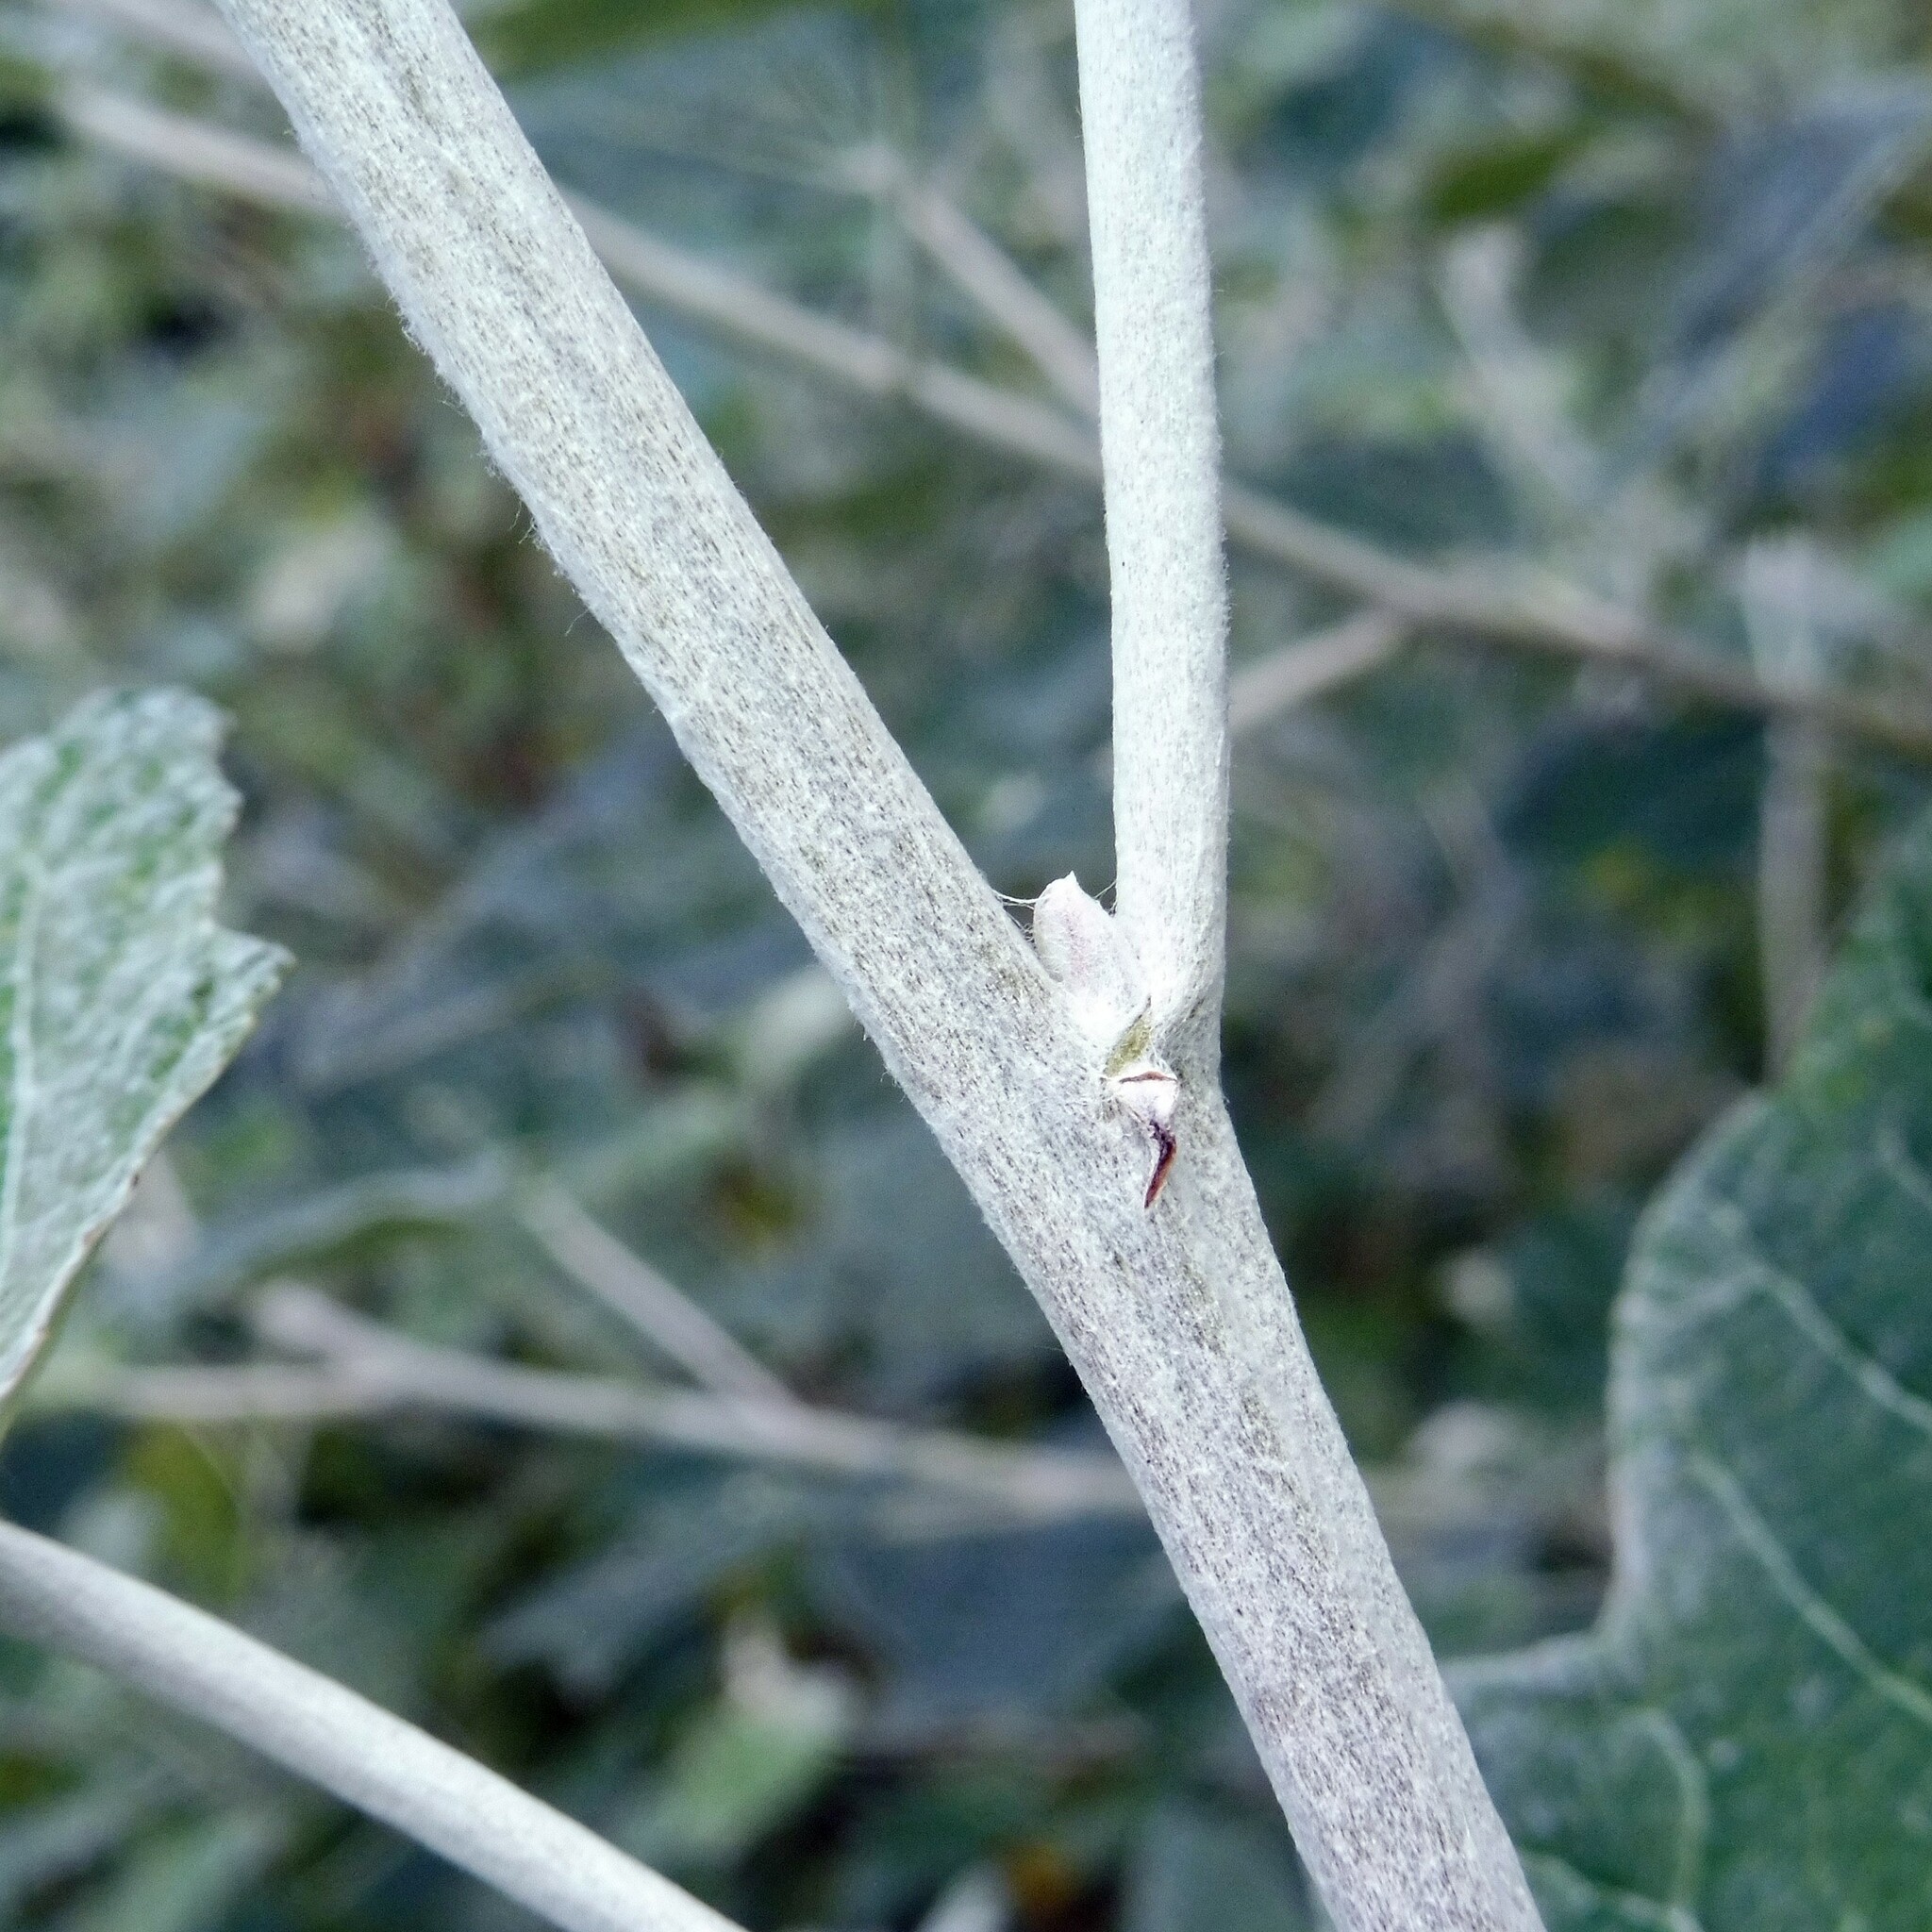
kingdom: Plantae
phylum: Tracheophyta
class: Magnoliopsida
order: Malpighiales
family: Salicaceae
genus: Populus
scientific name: Populus alba
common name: White poplar
